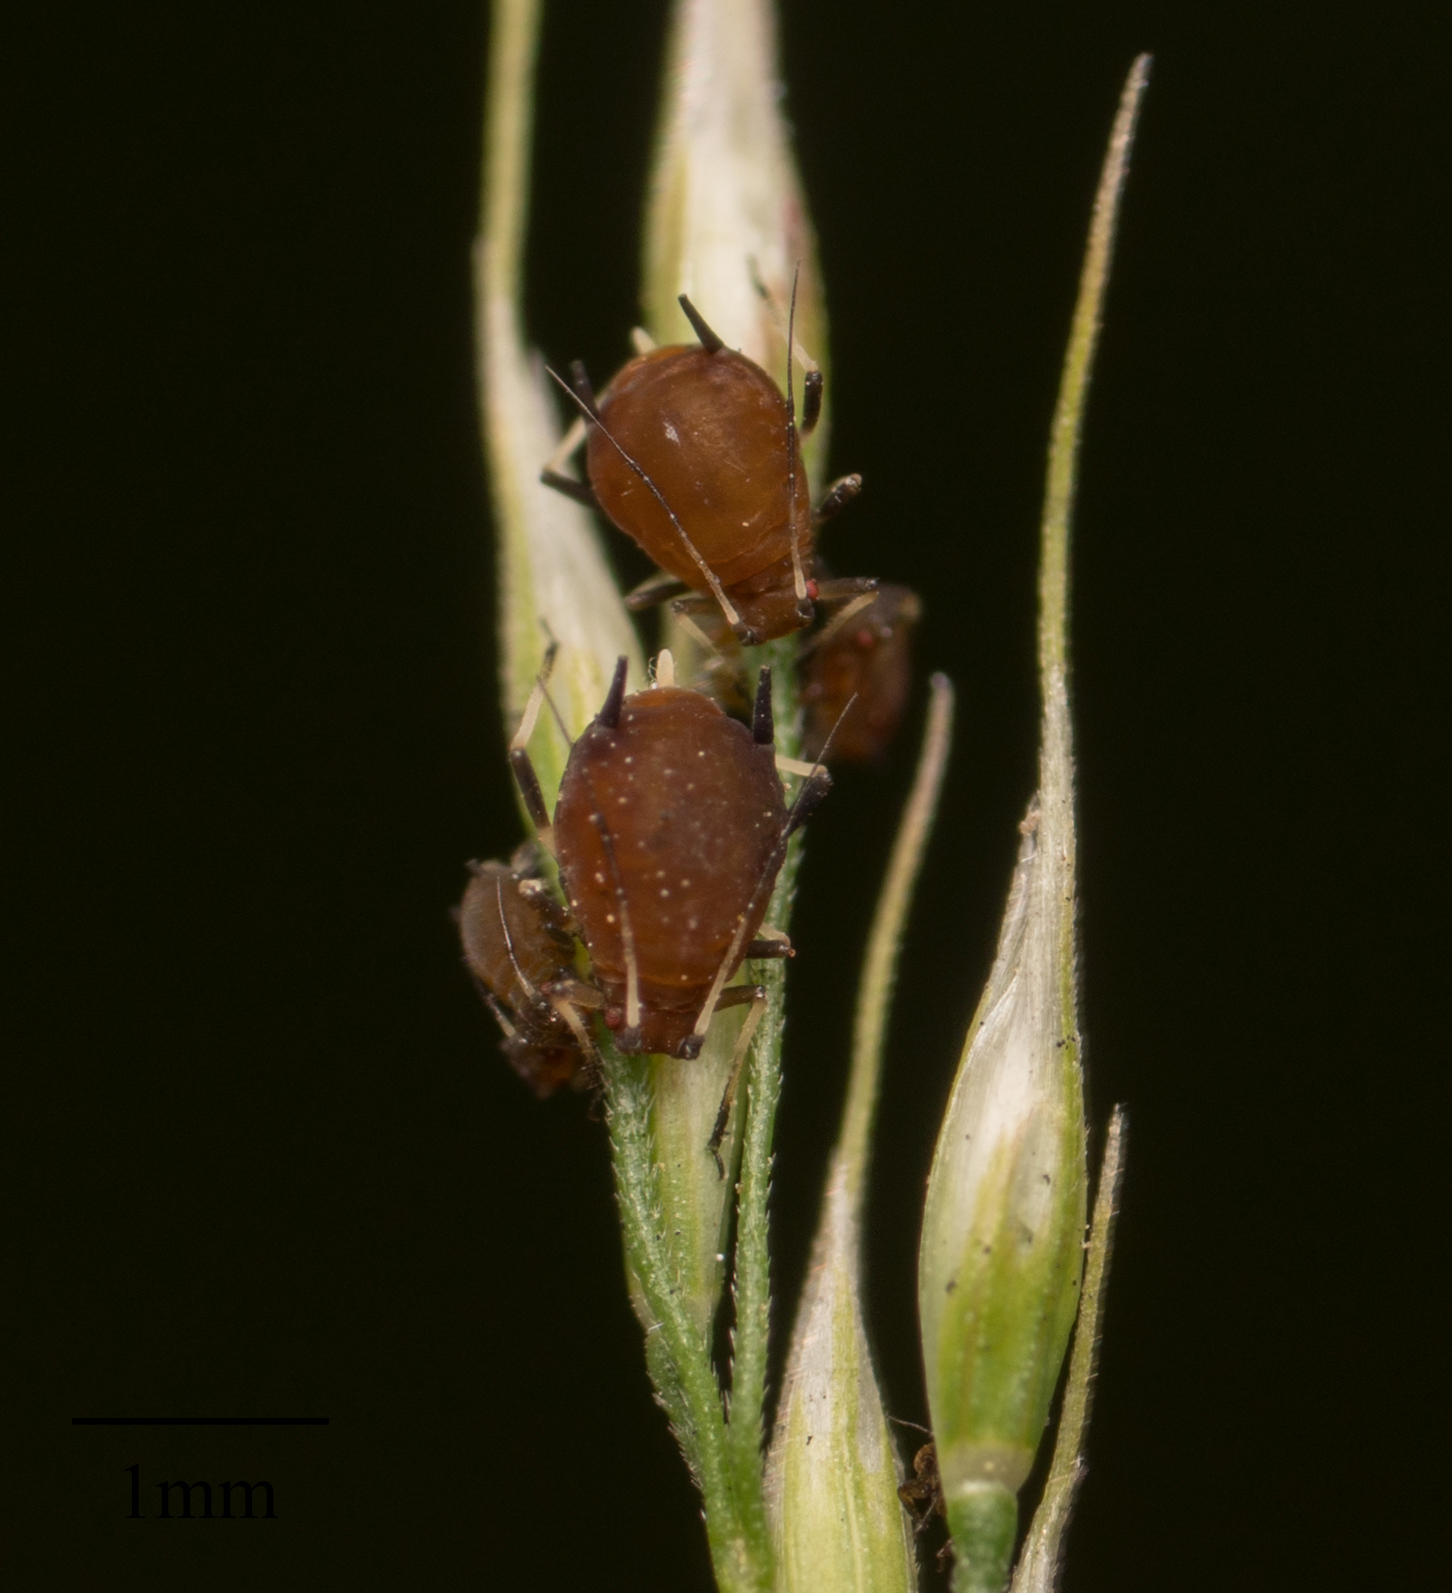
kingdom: Animalia
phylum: Arthropoda
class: Insecta
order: Hemiptera
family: Aphididae
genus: Hysteroneura
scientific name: Hysteroneura setariae
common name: Rusty plum aphid
